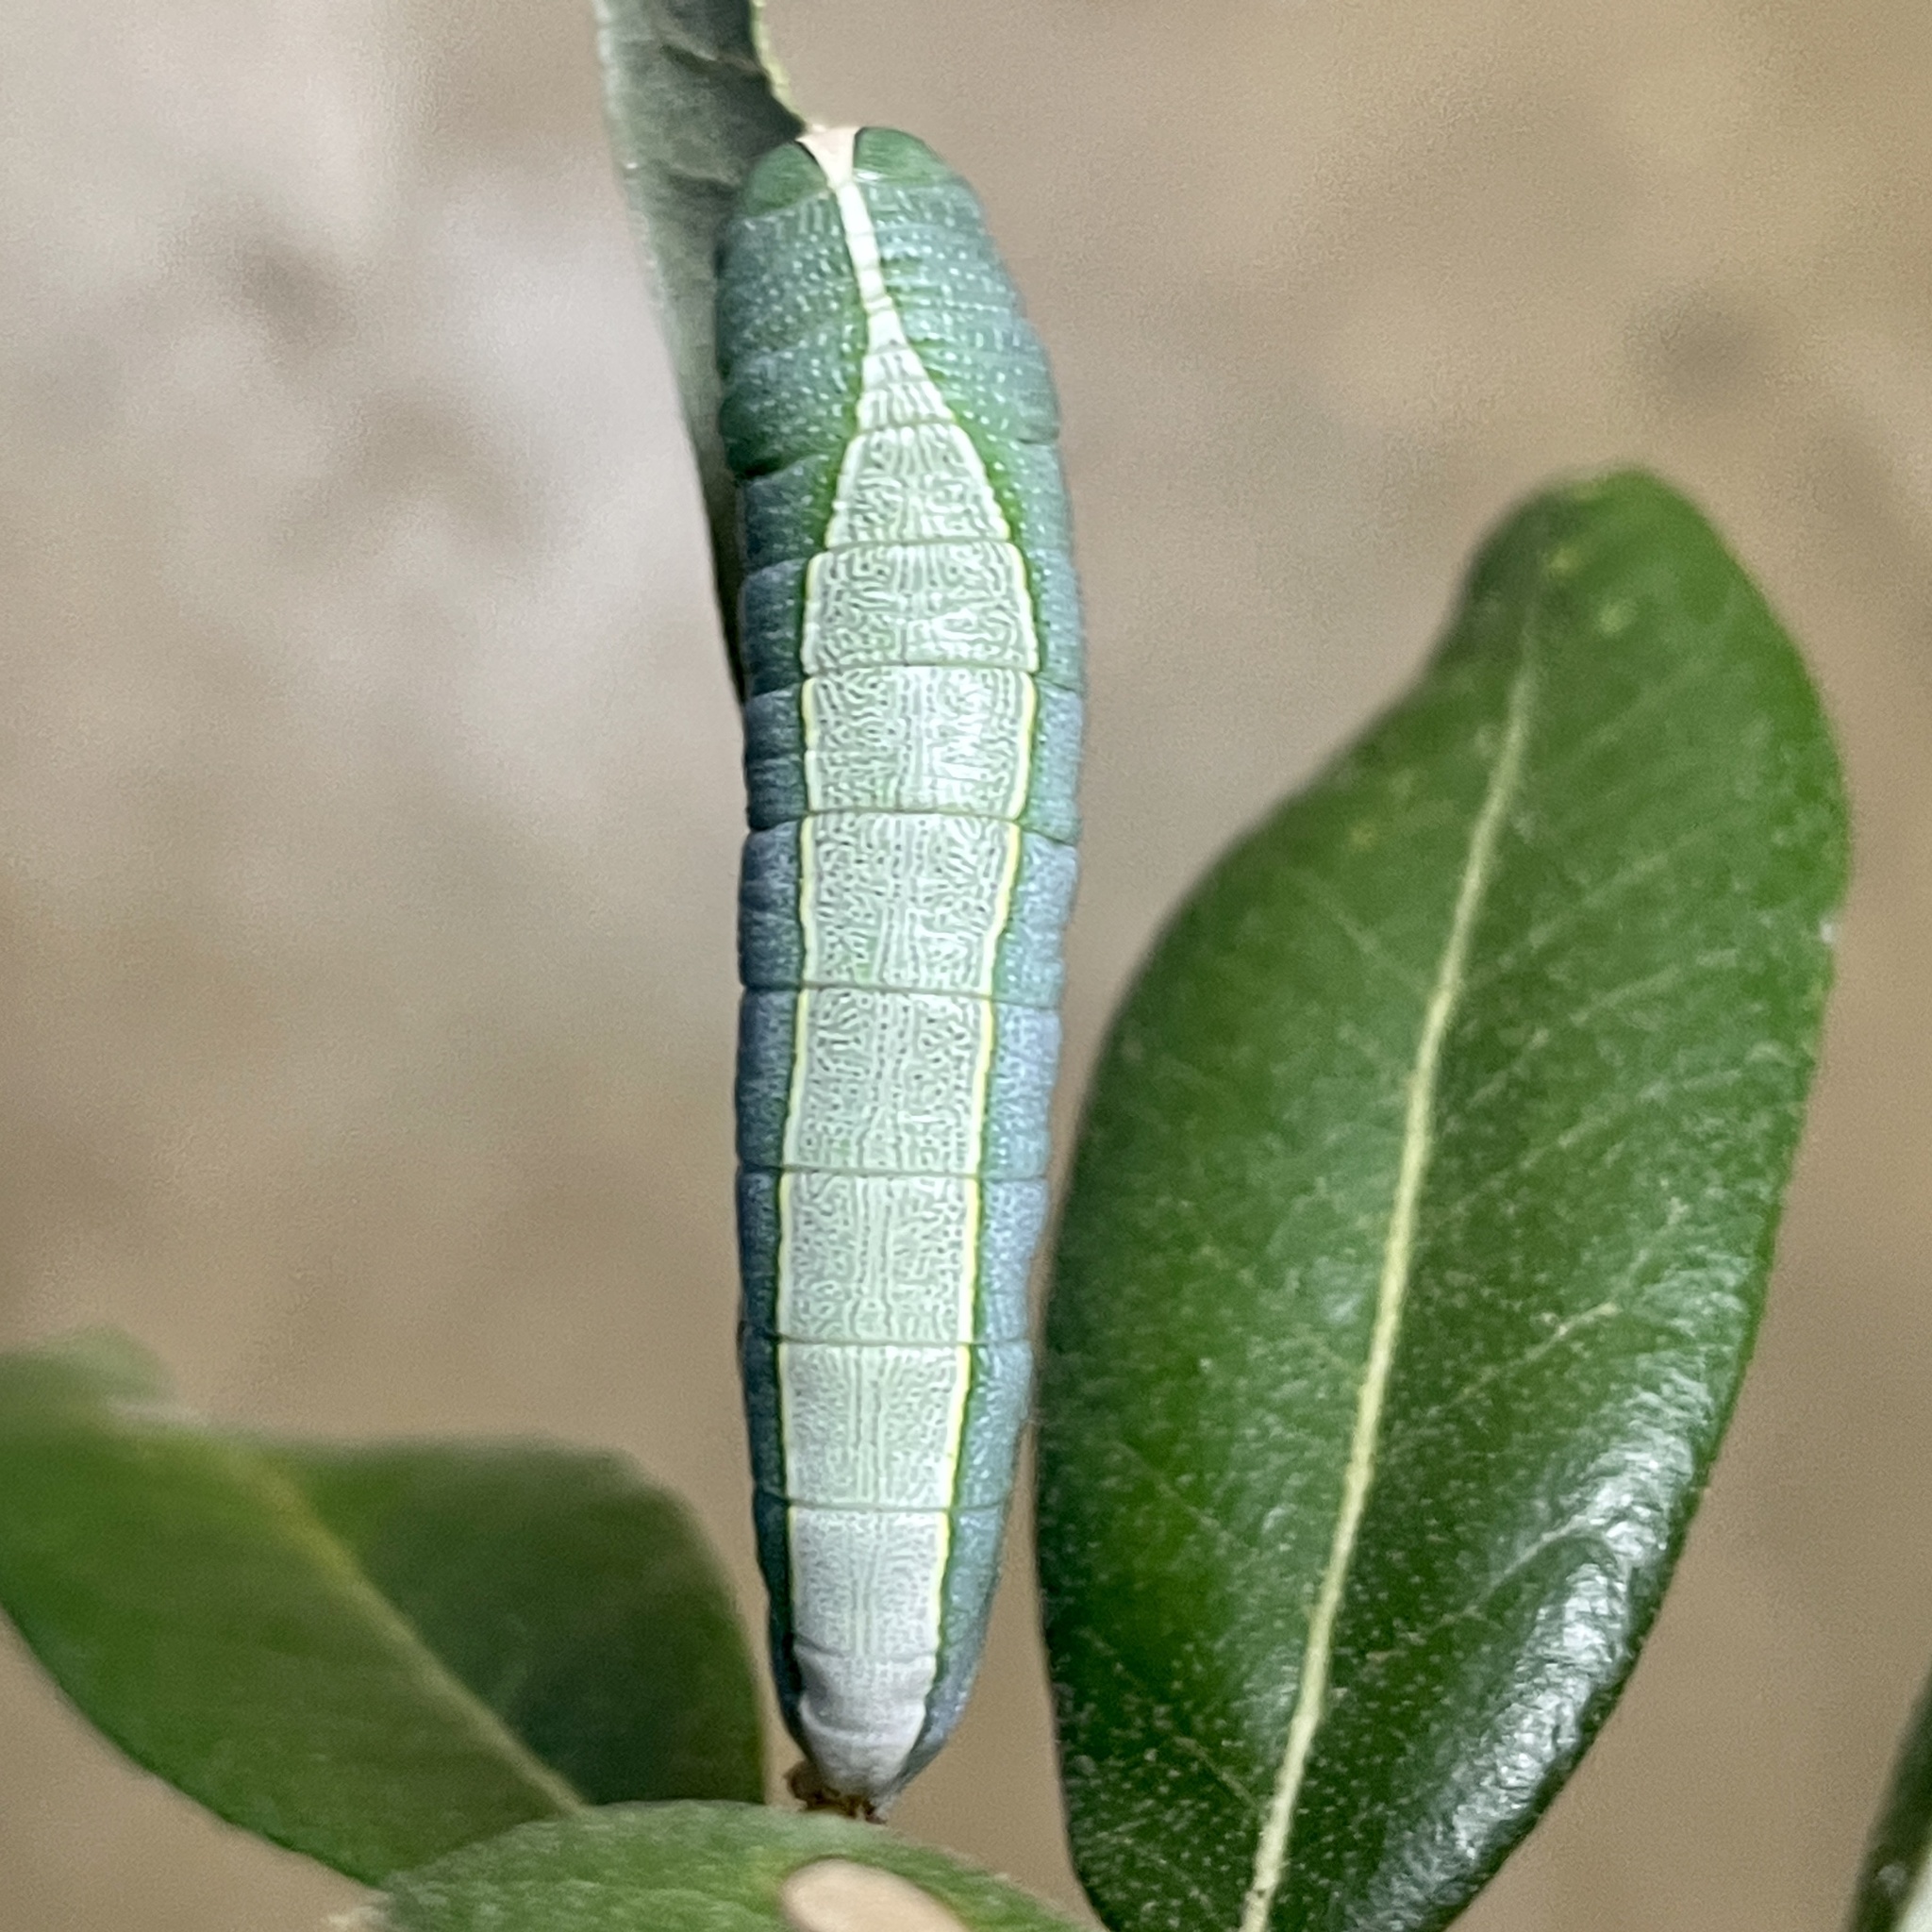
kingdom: Animalia
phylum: Arthropoda
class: Insecta
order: Lepidoptera
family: Notodontidae
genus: Heterocampa
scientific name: Heterocampa astartoides
